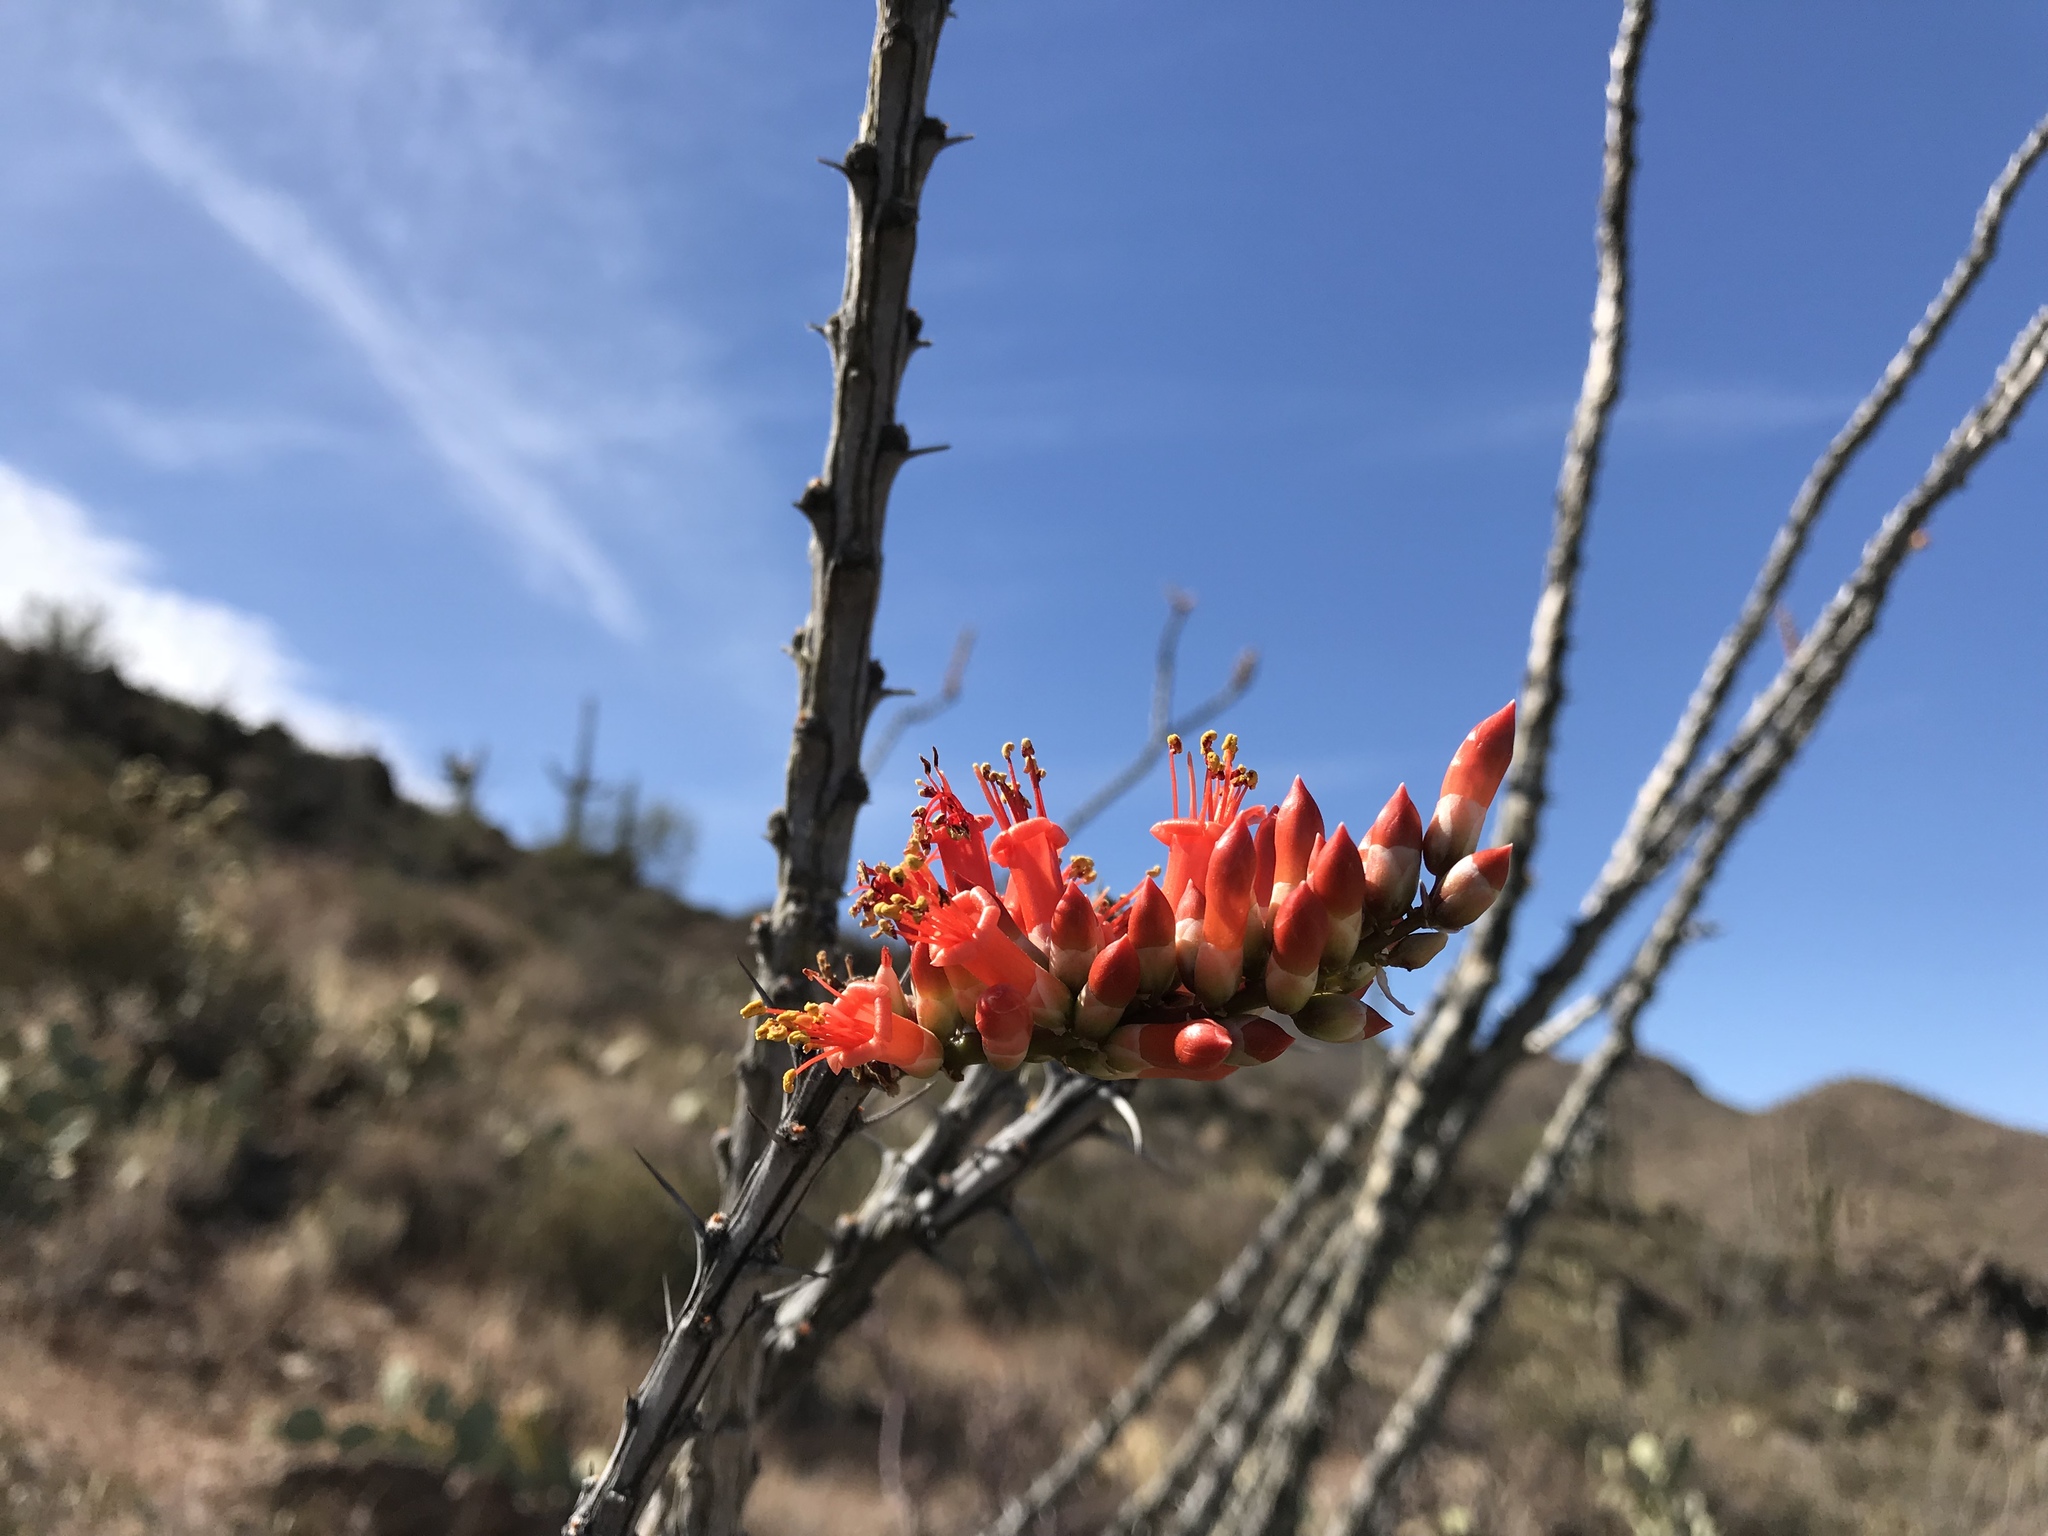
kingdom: Plantae
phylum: Tracheophyta
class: Magnoliopsida
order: Ericales
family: Fouquieriaceae
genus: Fouquieria
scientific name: Fouquieria splendens
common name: Vine-cactus
